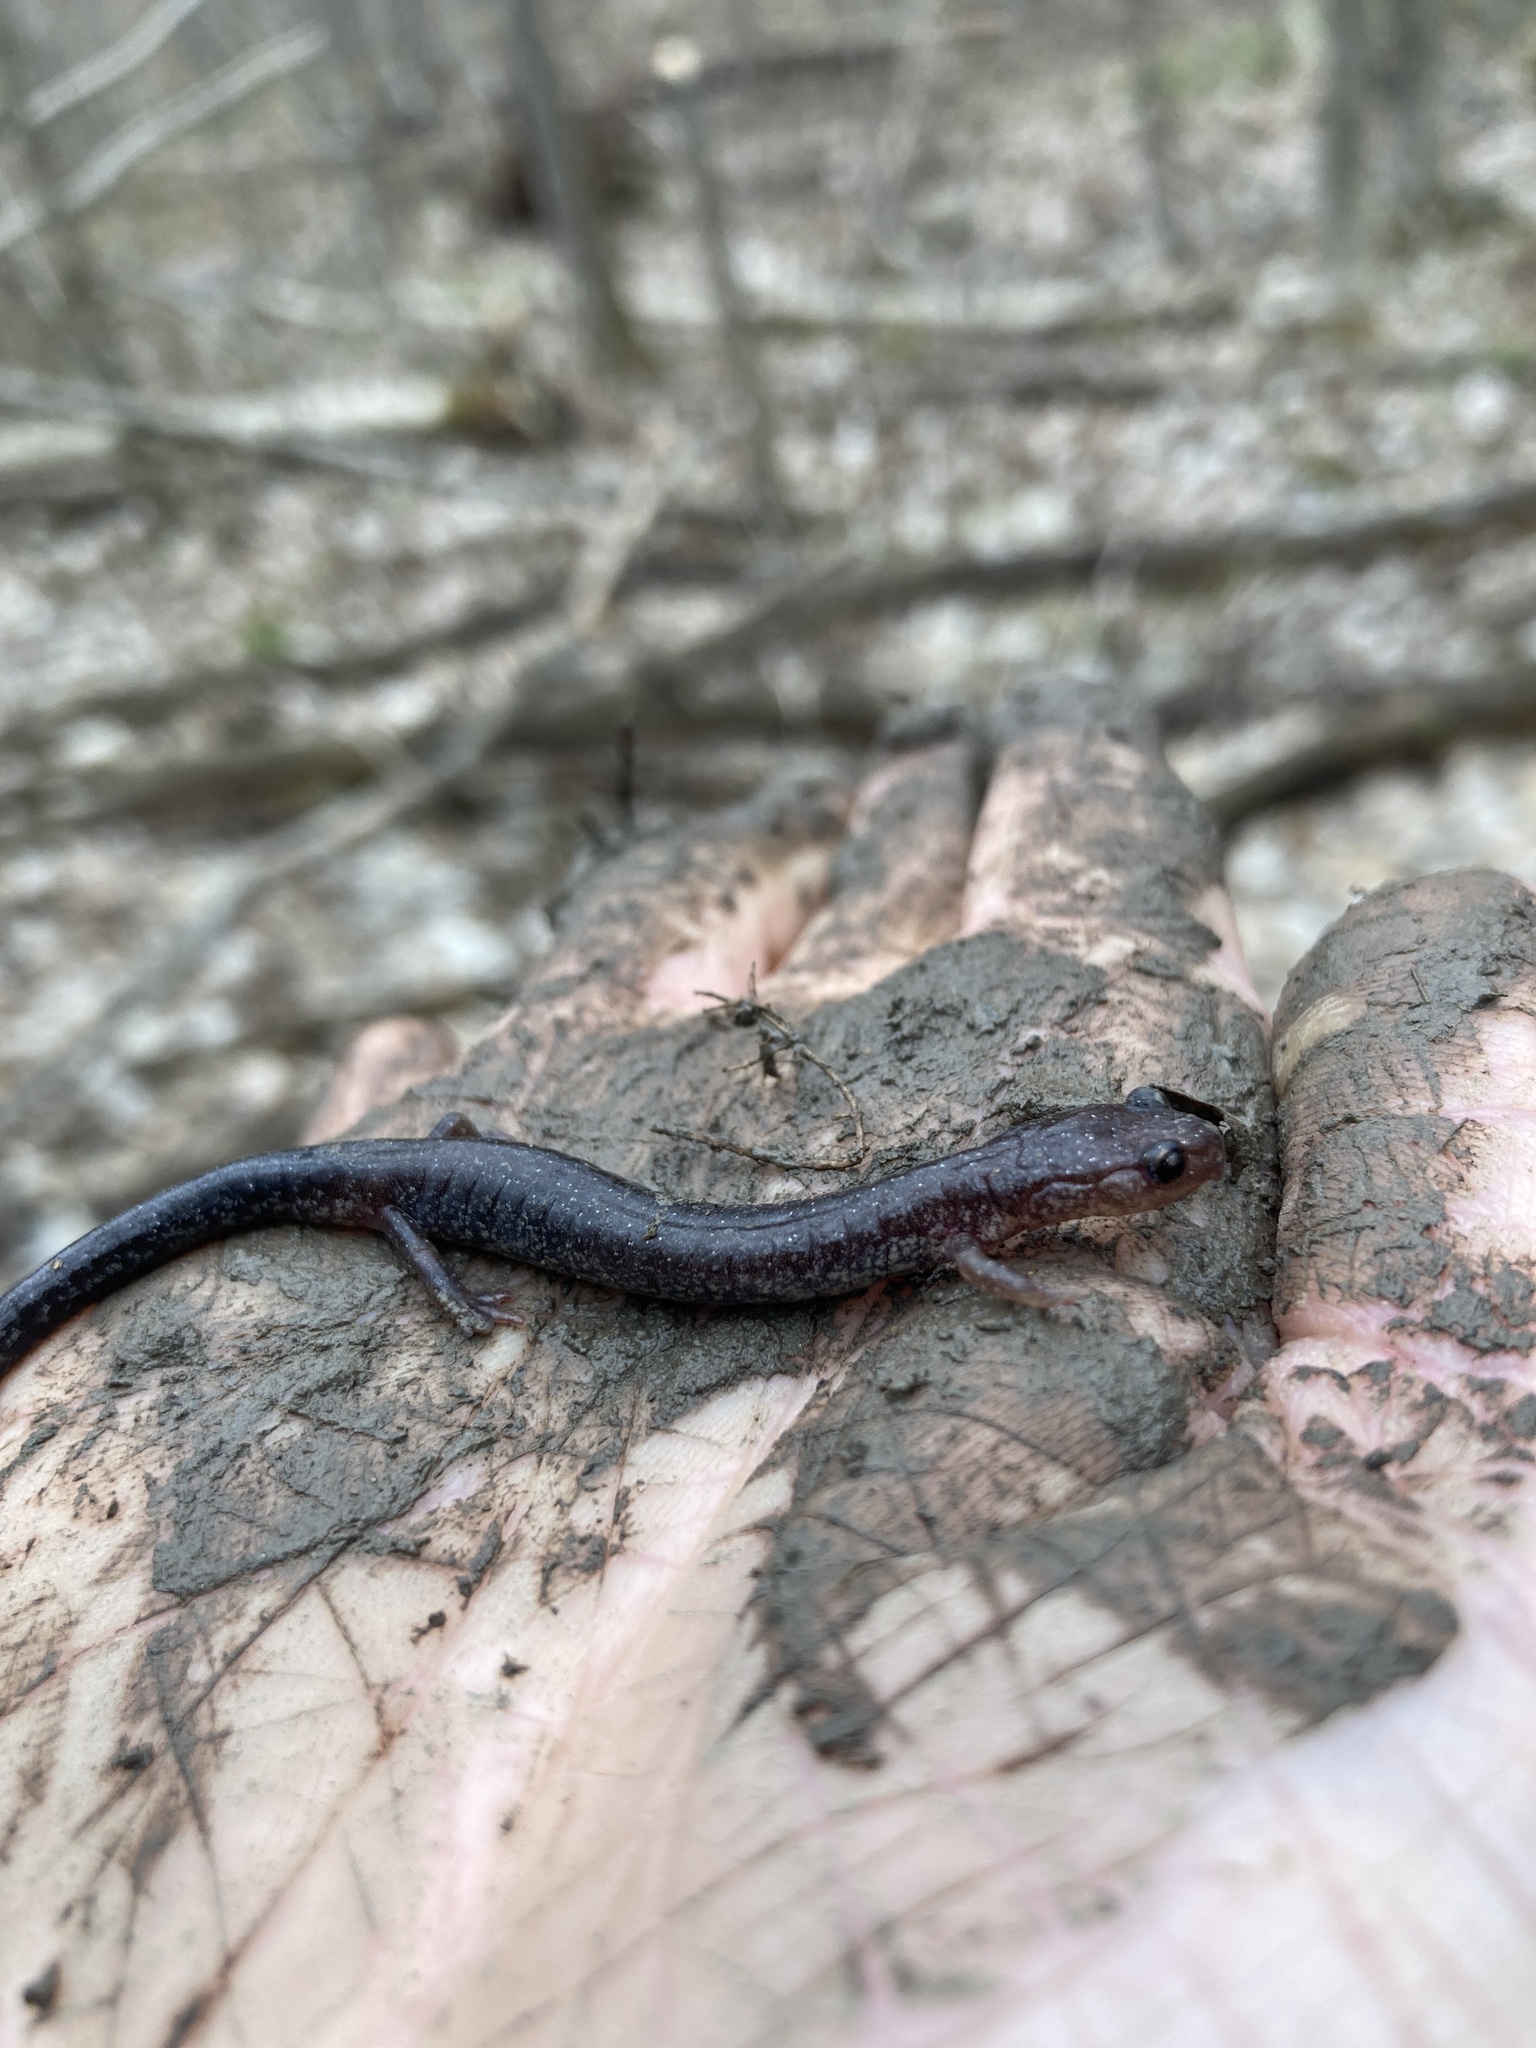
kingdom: Animalia
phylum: Chordata
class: Amphibia
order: Caudata
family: Plethodontidae
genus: Plethodon
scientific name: Plethodon cinereus
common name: Redback salamander
